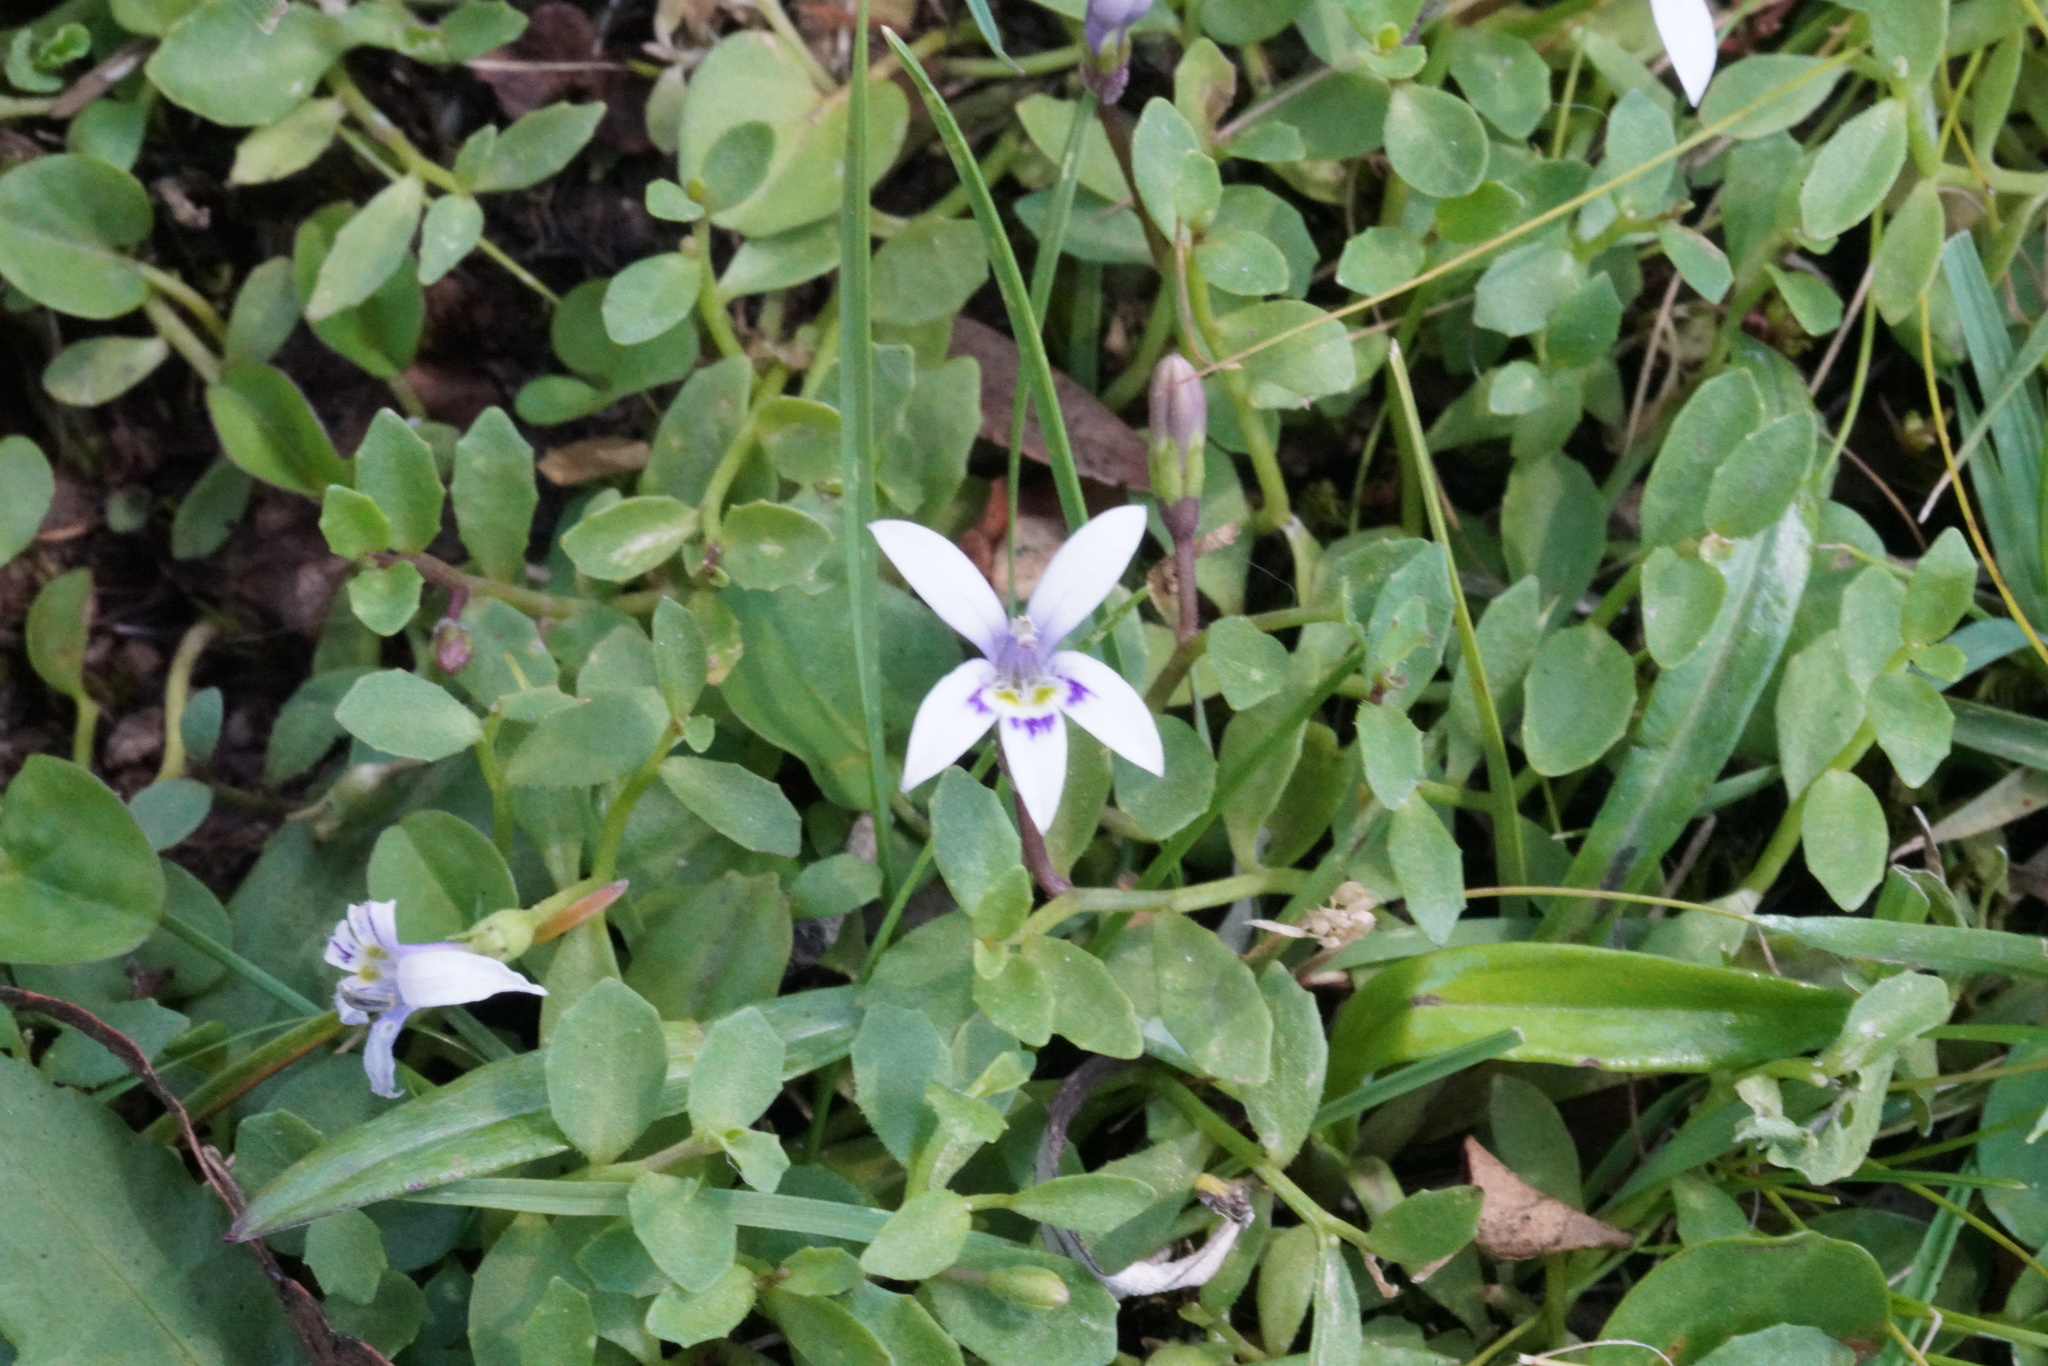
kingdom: Plantae
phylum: Tracheophyta
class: Magnoliopsida
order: Asterales
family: Campanulaceae
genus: Isotoma
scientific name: Isotoma fluviatilis
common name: Isotoma
